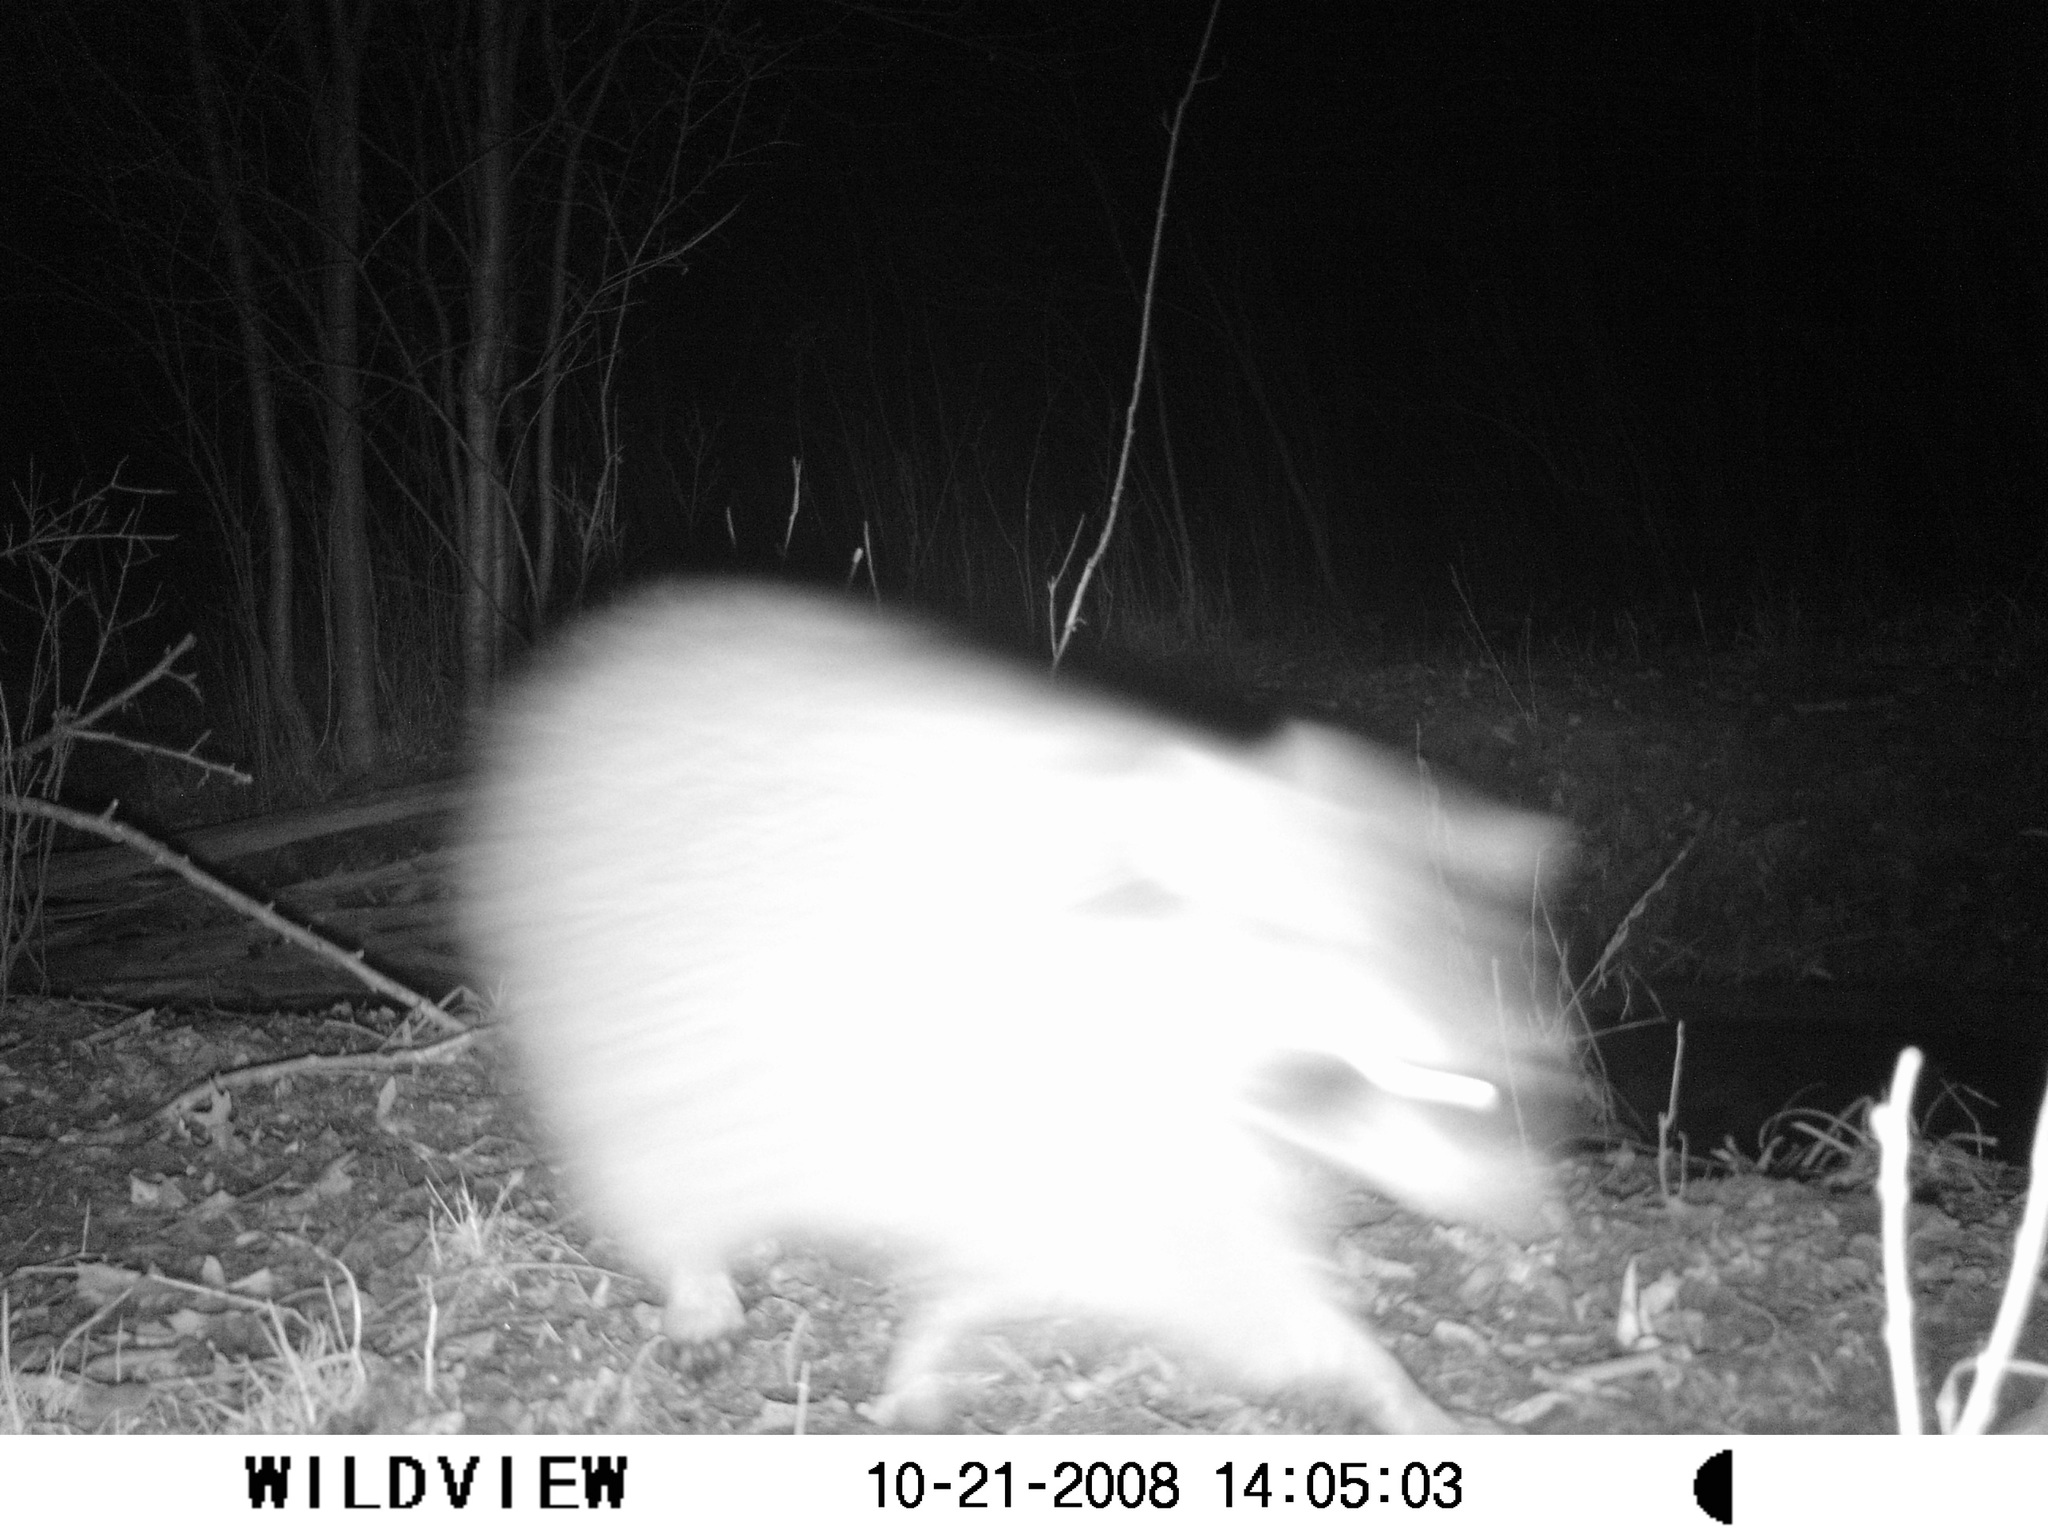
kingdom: Animalia
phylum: Chordata
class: Mammalia
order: Carnivora
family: Procyonidae
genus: Procyon
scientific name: Procyon lotor
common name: Raccoon
